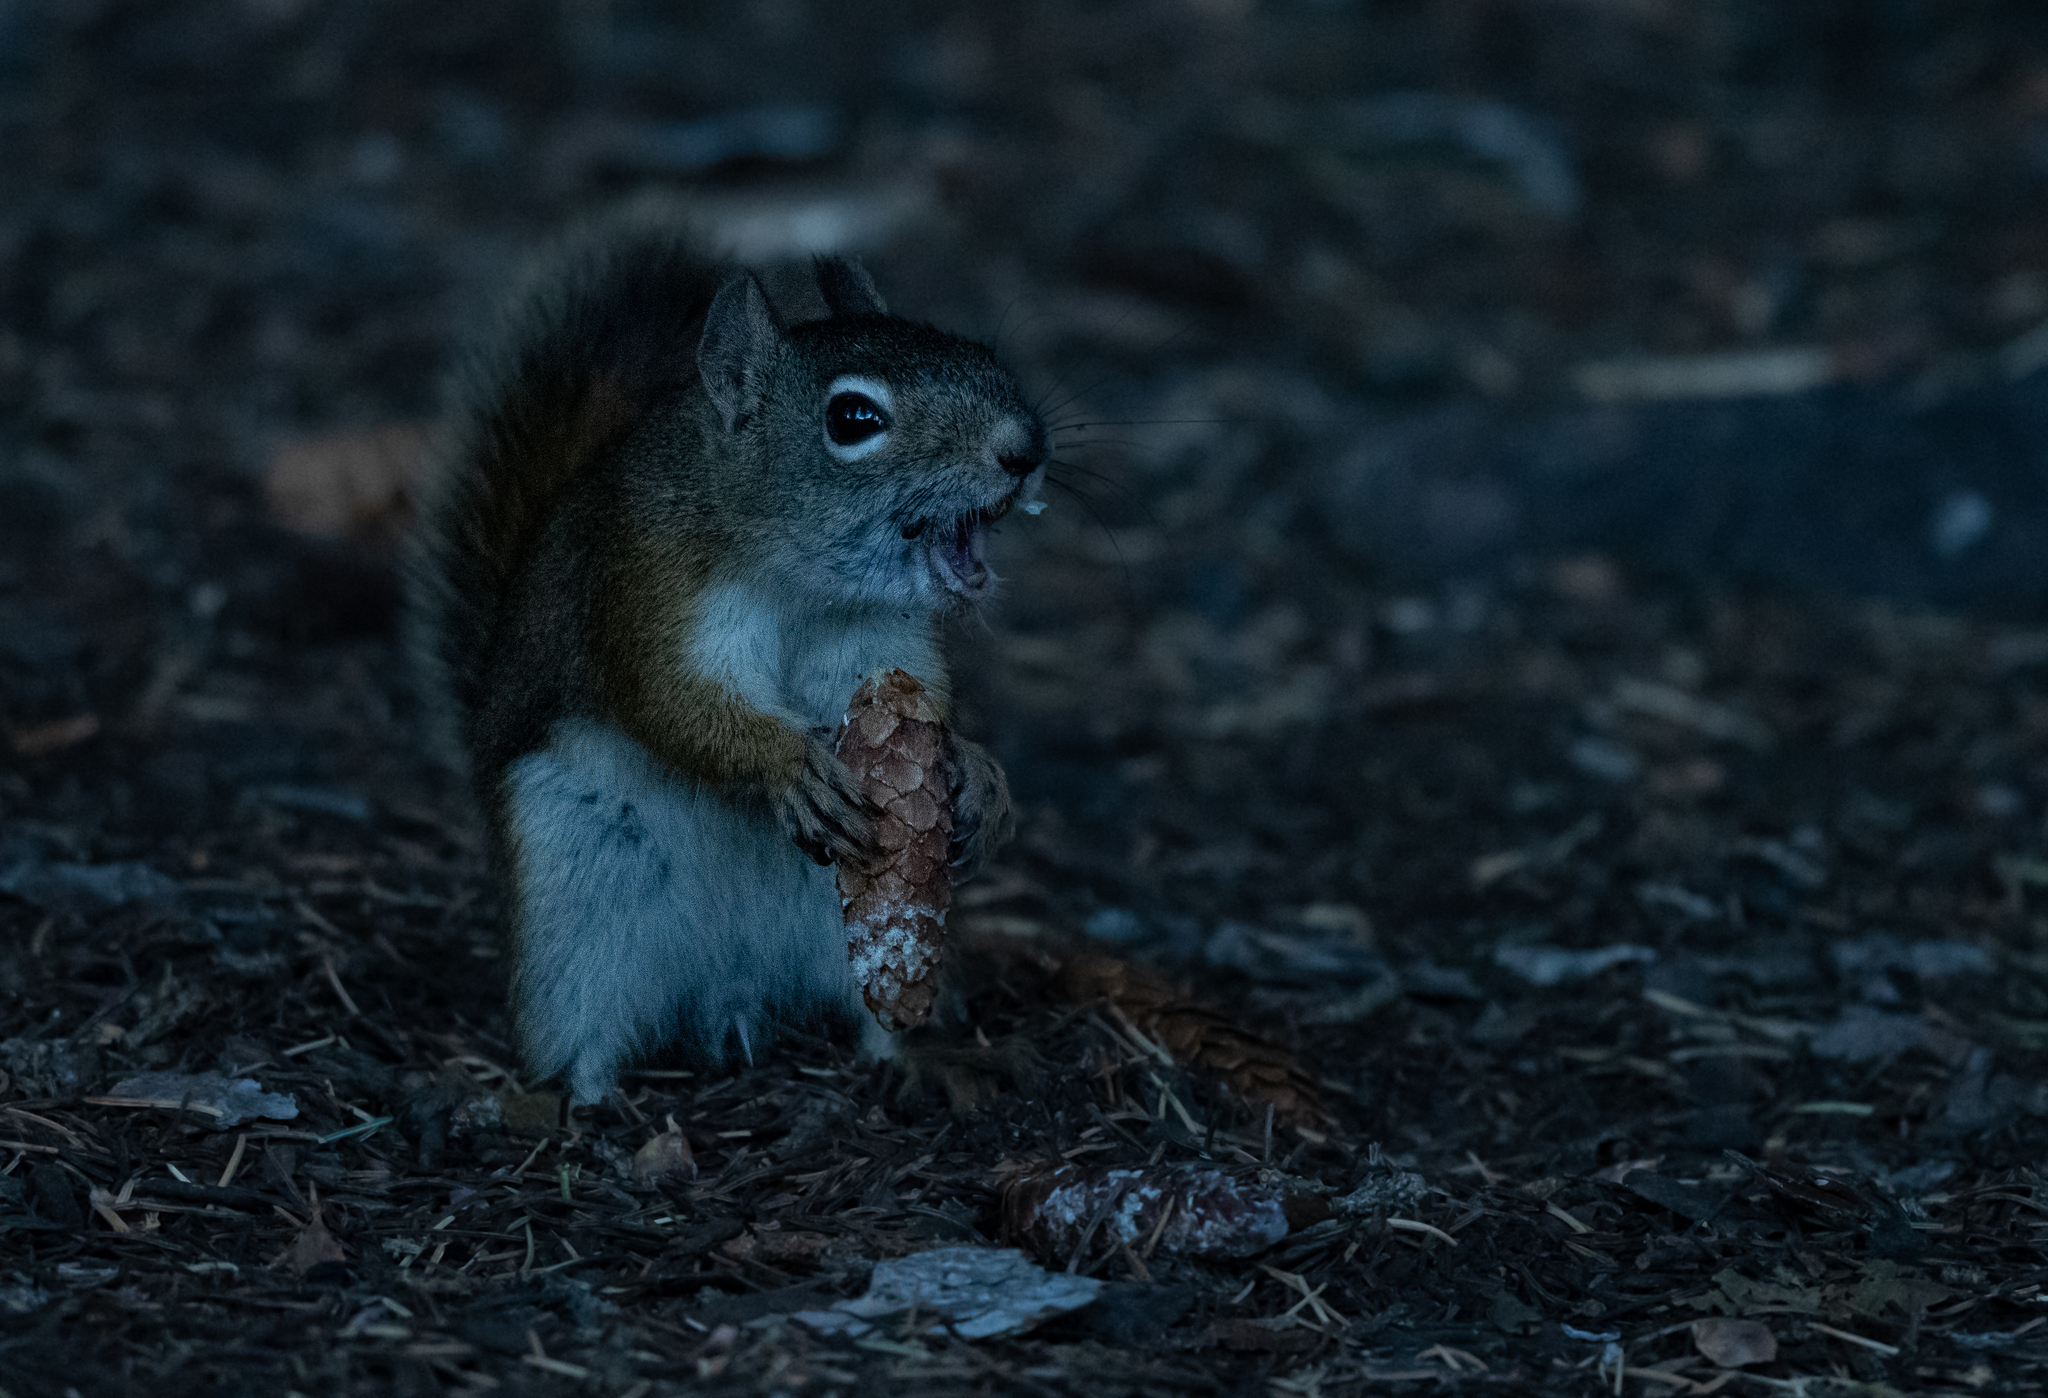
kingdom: Animalia
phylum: Chordata
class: Mammalia
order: Rodentia
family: Sciuridae
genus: Tamiasciurus
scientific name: Tamiasciurus hudsonicus
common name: Red squirrel
